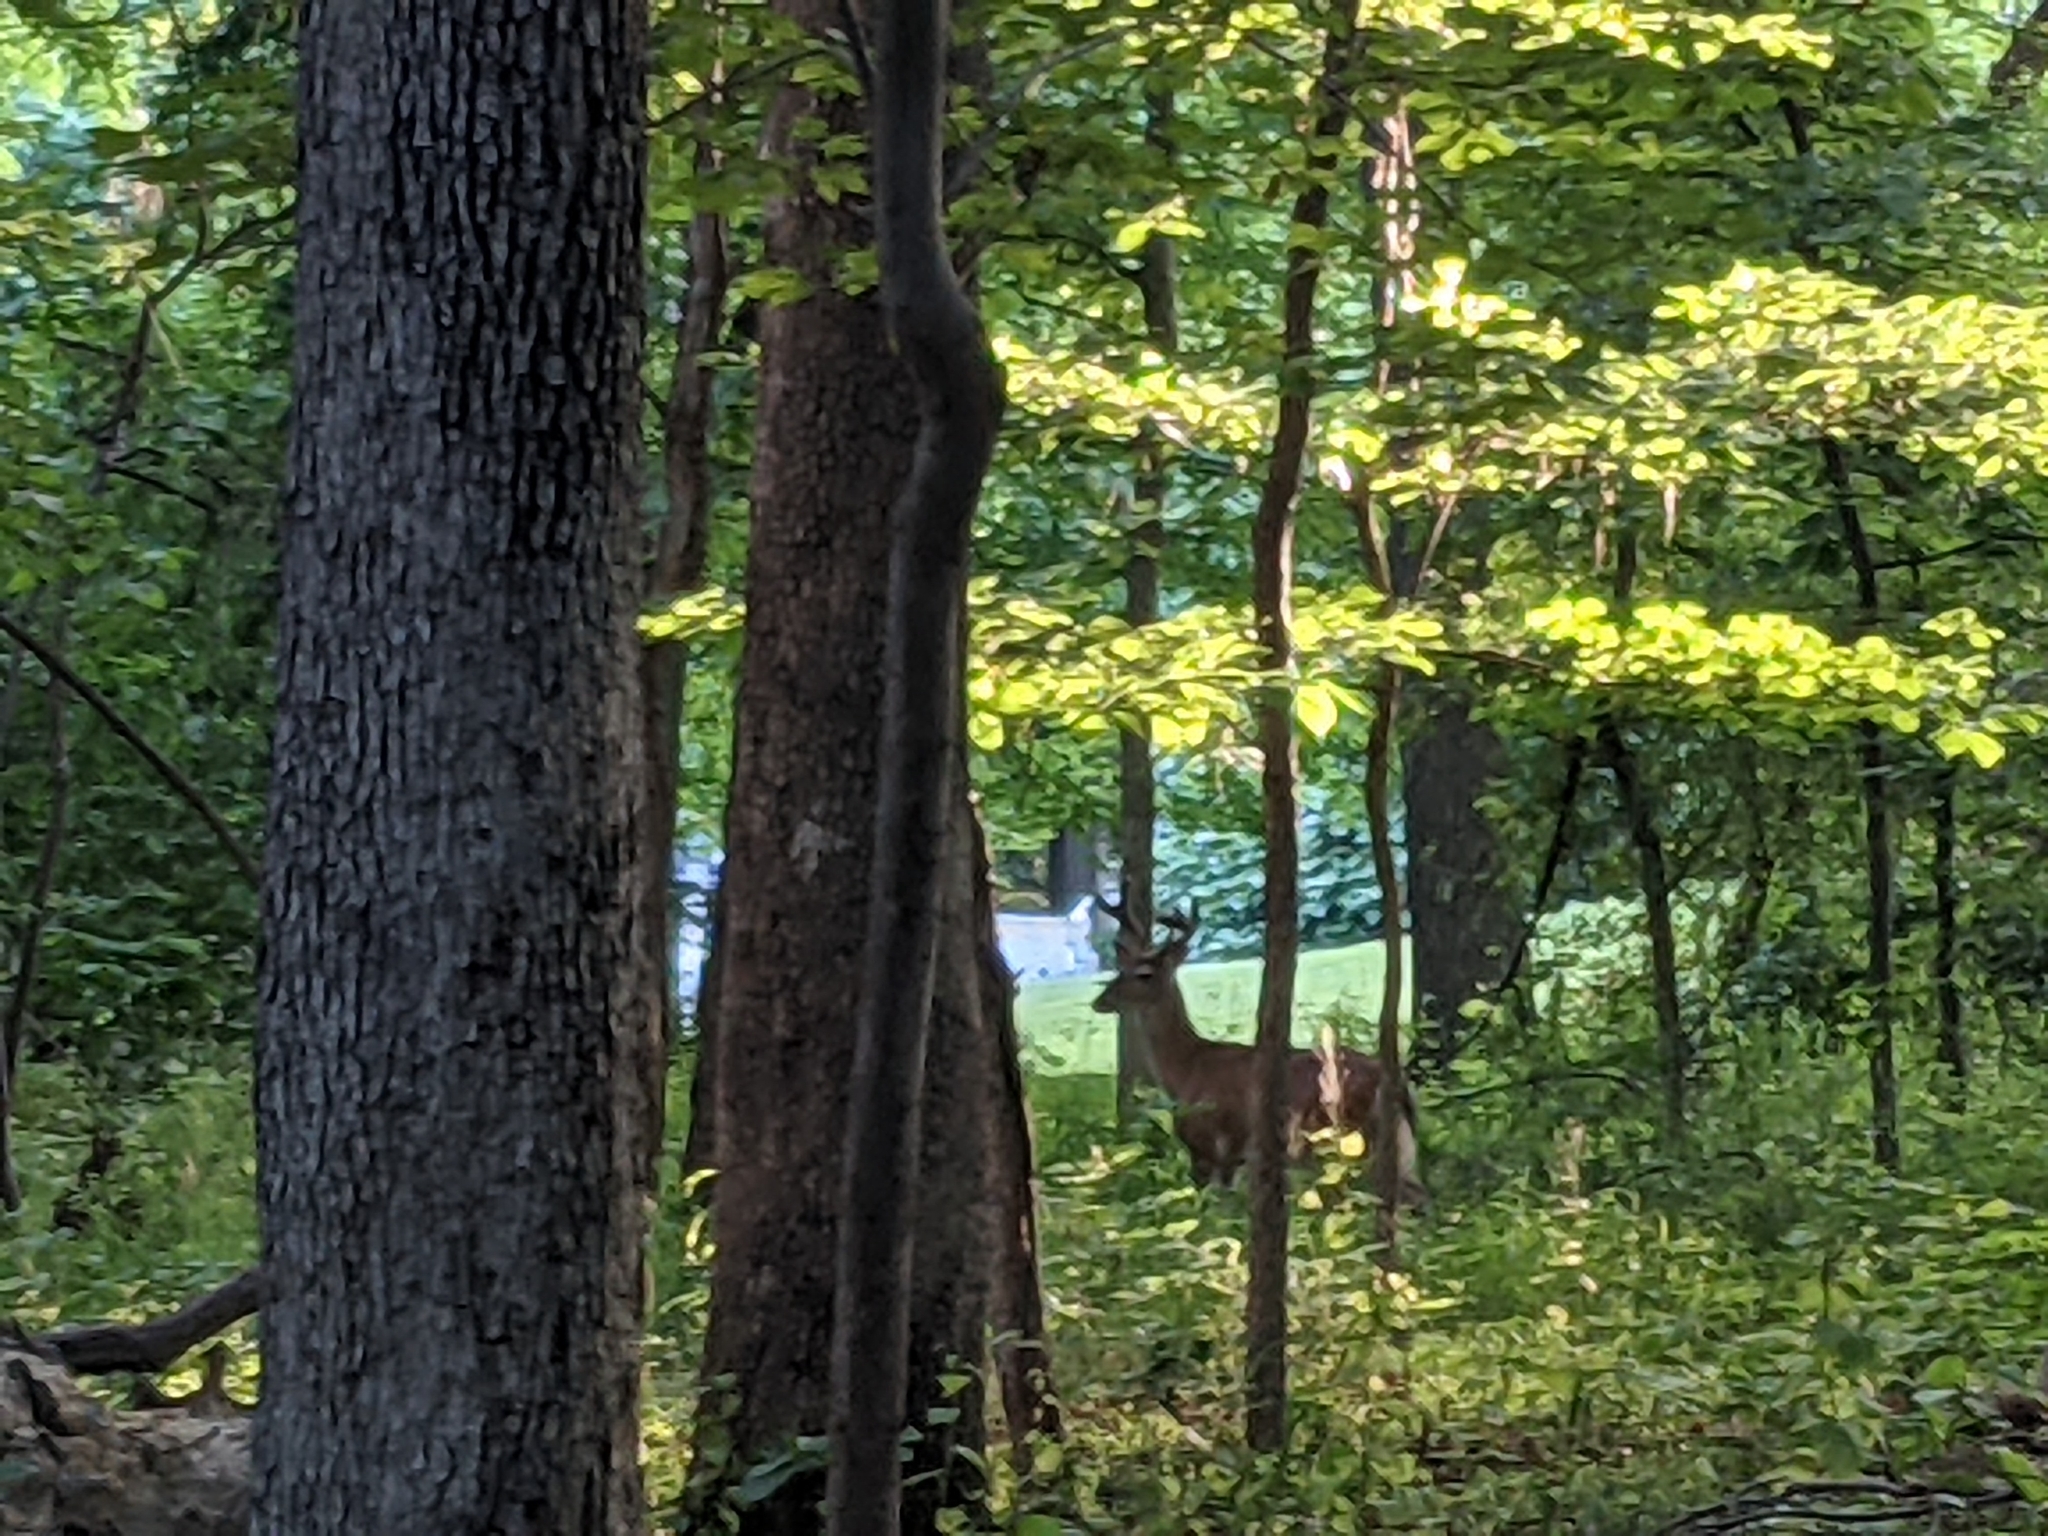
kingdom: Animalia
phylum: Chordata
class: Mammalia
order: Artiodactyla
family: Cervidae
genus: Odocoileus
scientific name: Odocoileus virginianus
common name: White-tailed deer
